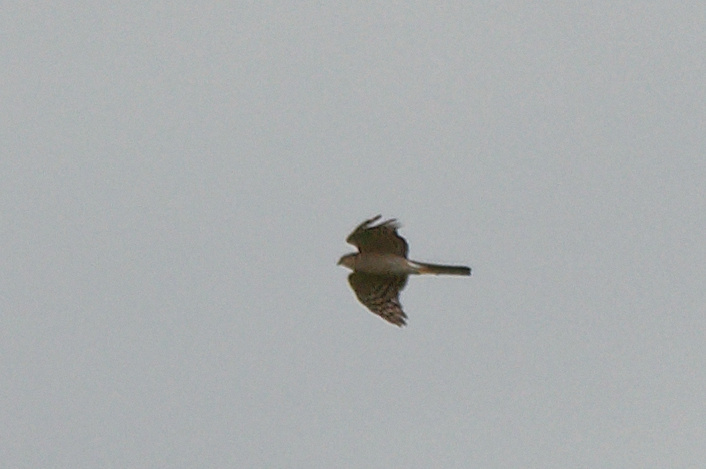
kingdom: Animalia
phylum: Chordata
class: Aves
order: Accipitriformes
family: Accipitridae
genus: Accipiter
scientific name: Accipiter nisus
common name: Eurasian sparrowhawk
